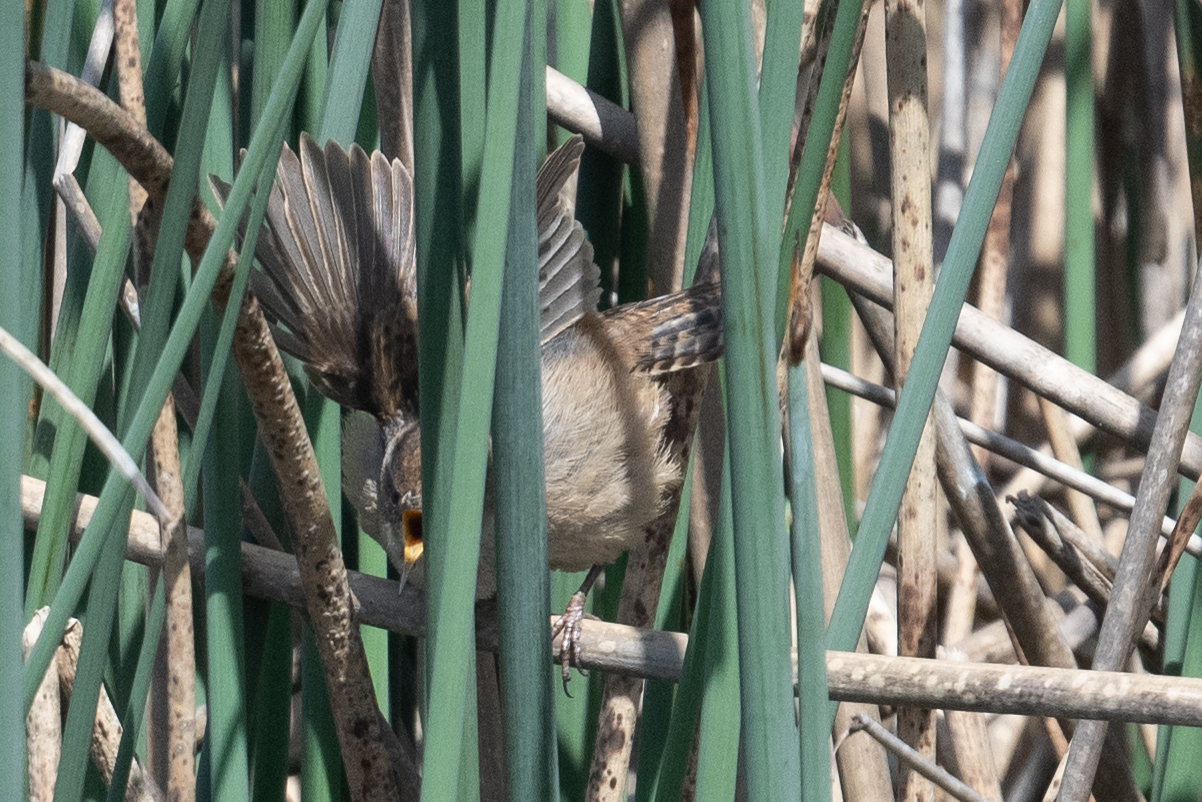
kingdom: Animalia
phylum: Chordata
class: Aves
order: Passeriformes
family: Troglodytidae
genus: Cistothorus
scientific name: Cistothorus palustris
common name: Marsh wren
